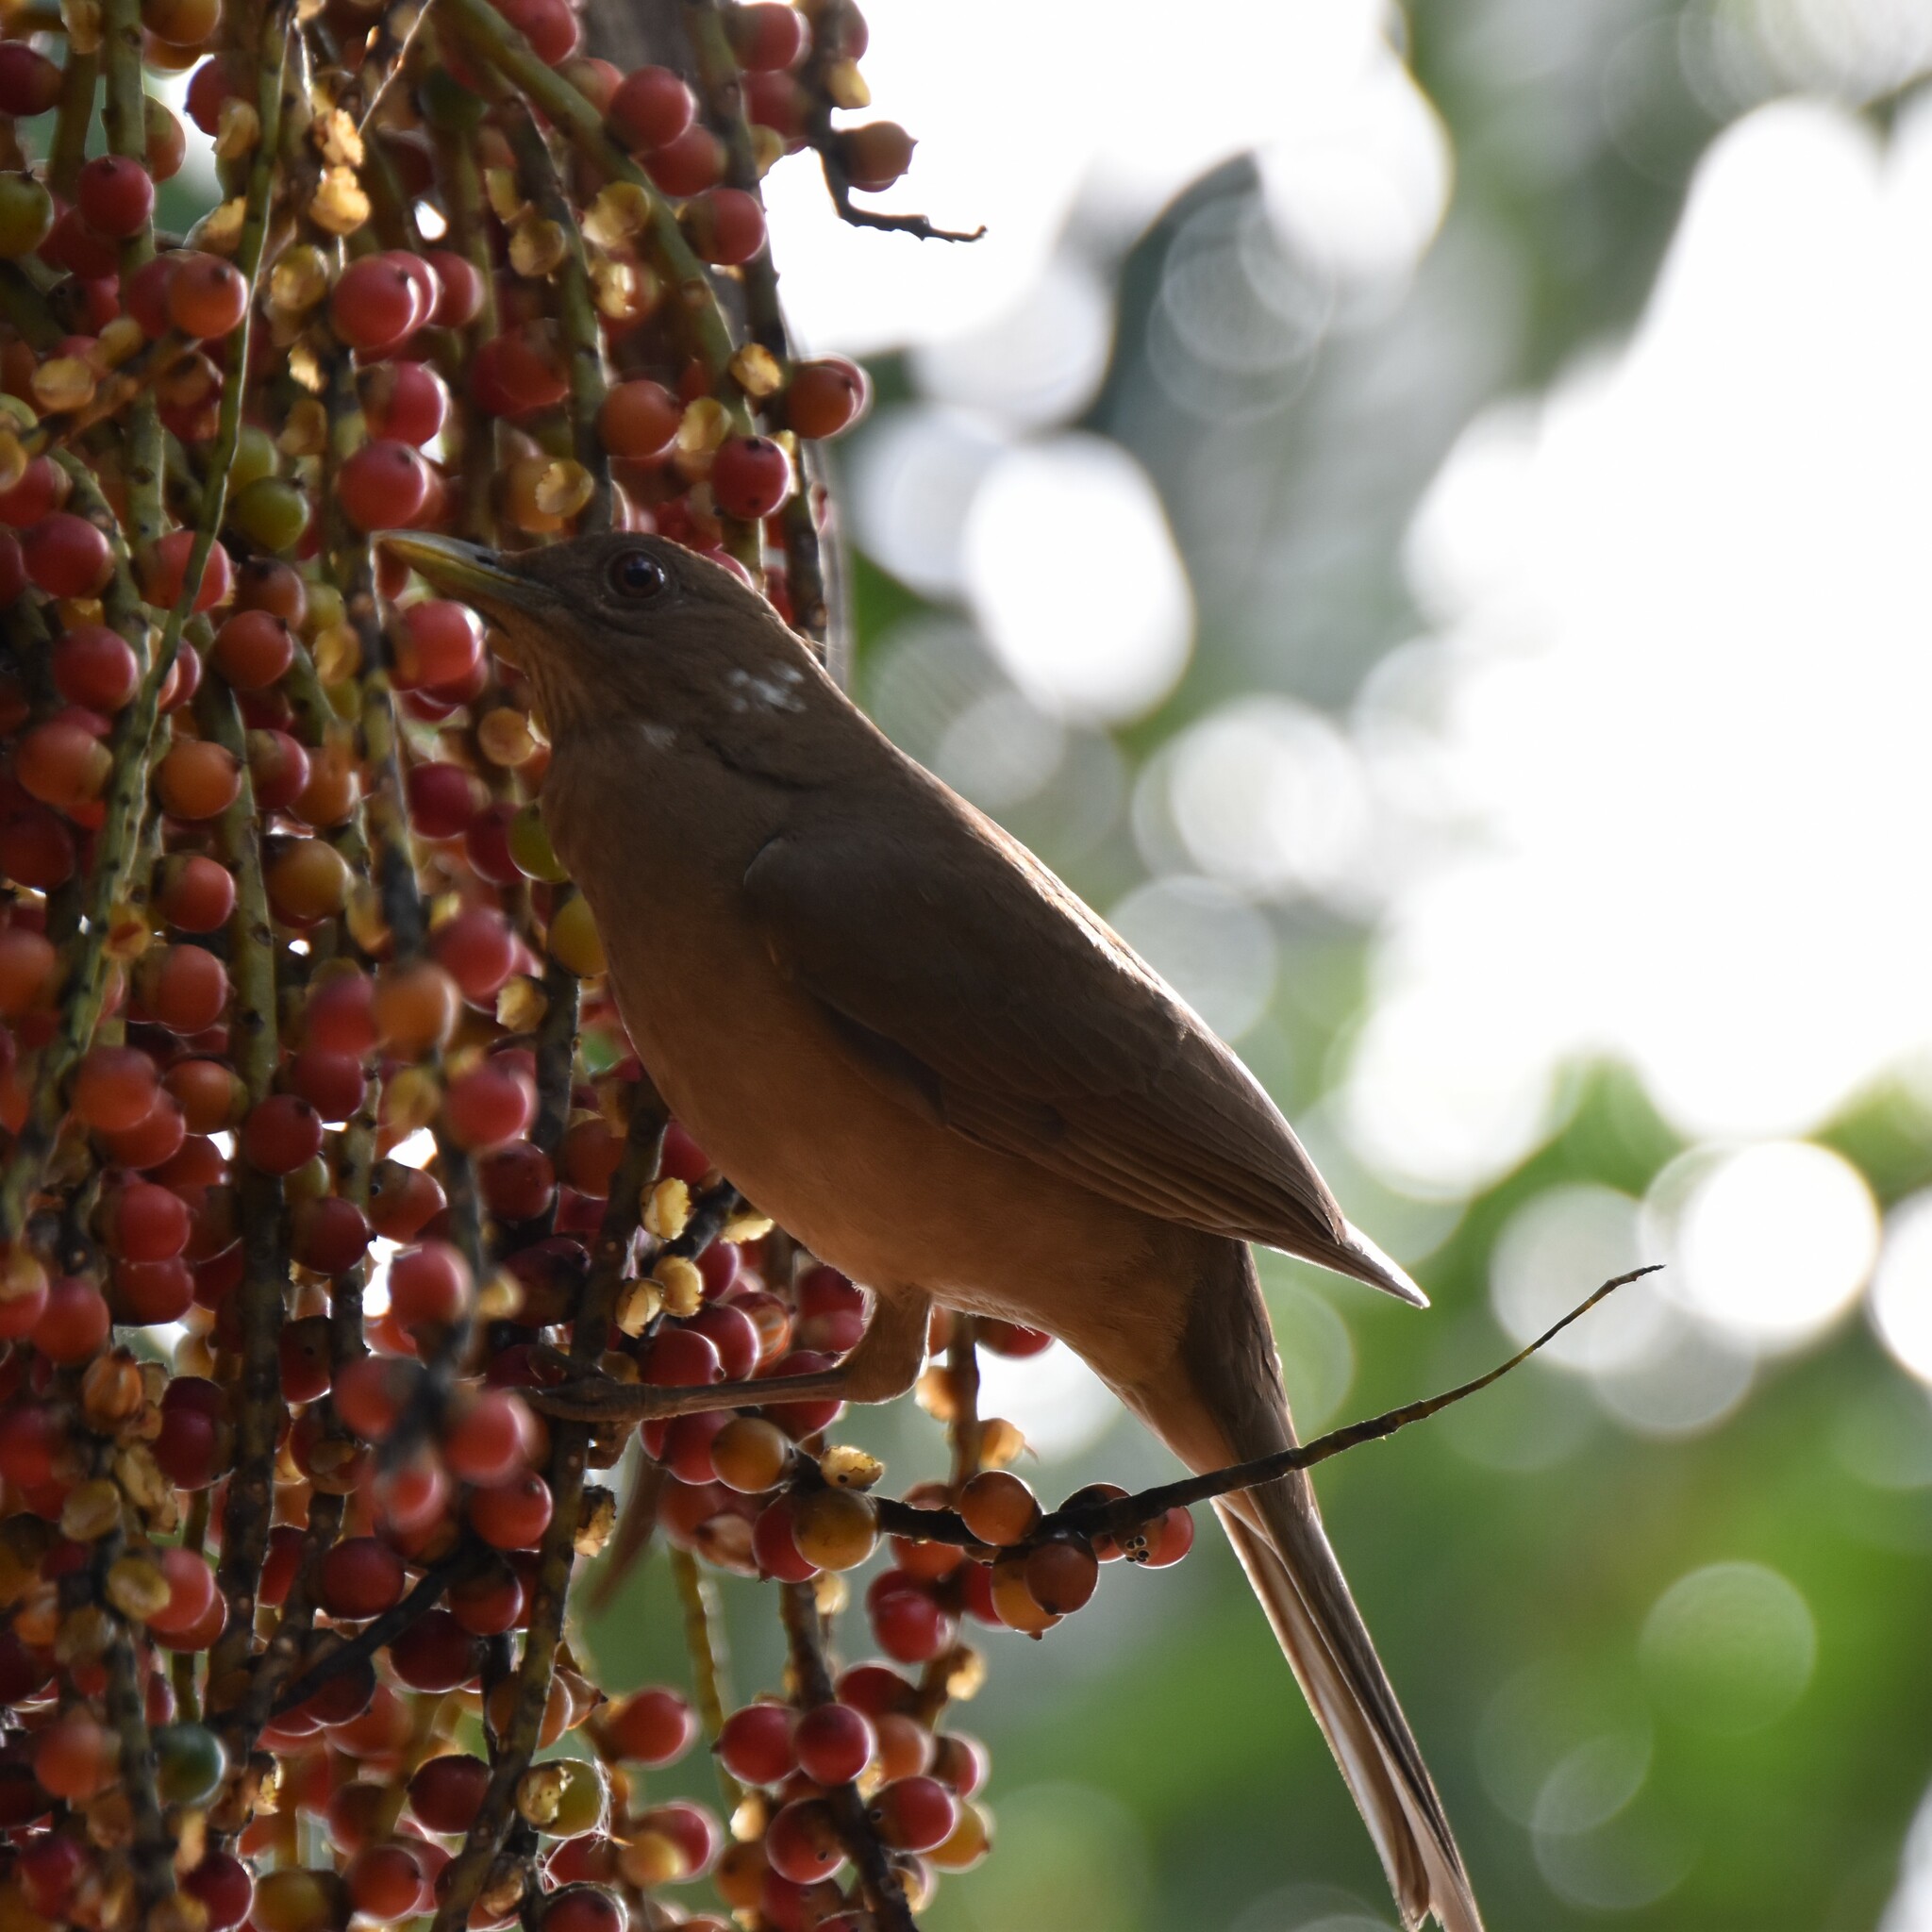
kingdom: Animalia
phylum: Chordata
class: Aves
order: Passeriformes
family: Turdidae
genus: Turdus
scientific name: Turdus grayi
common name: Clay-colored thrush
